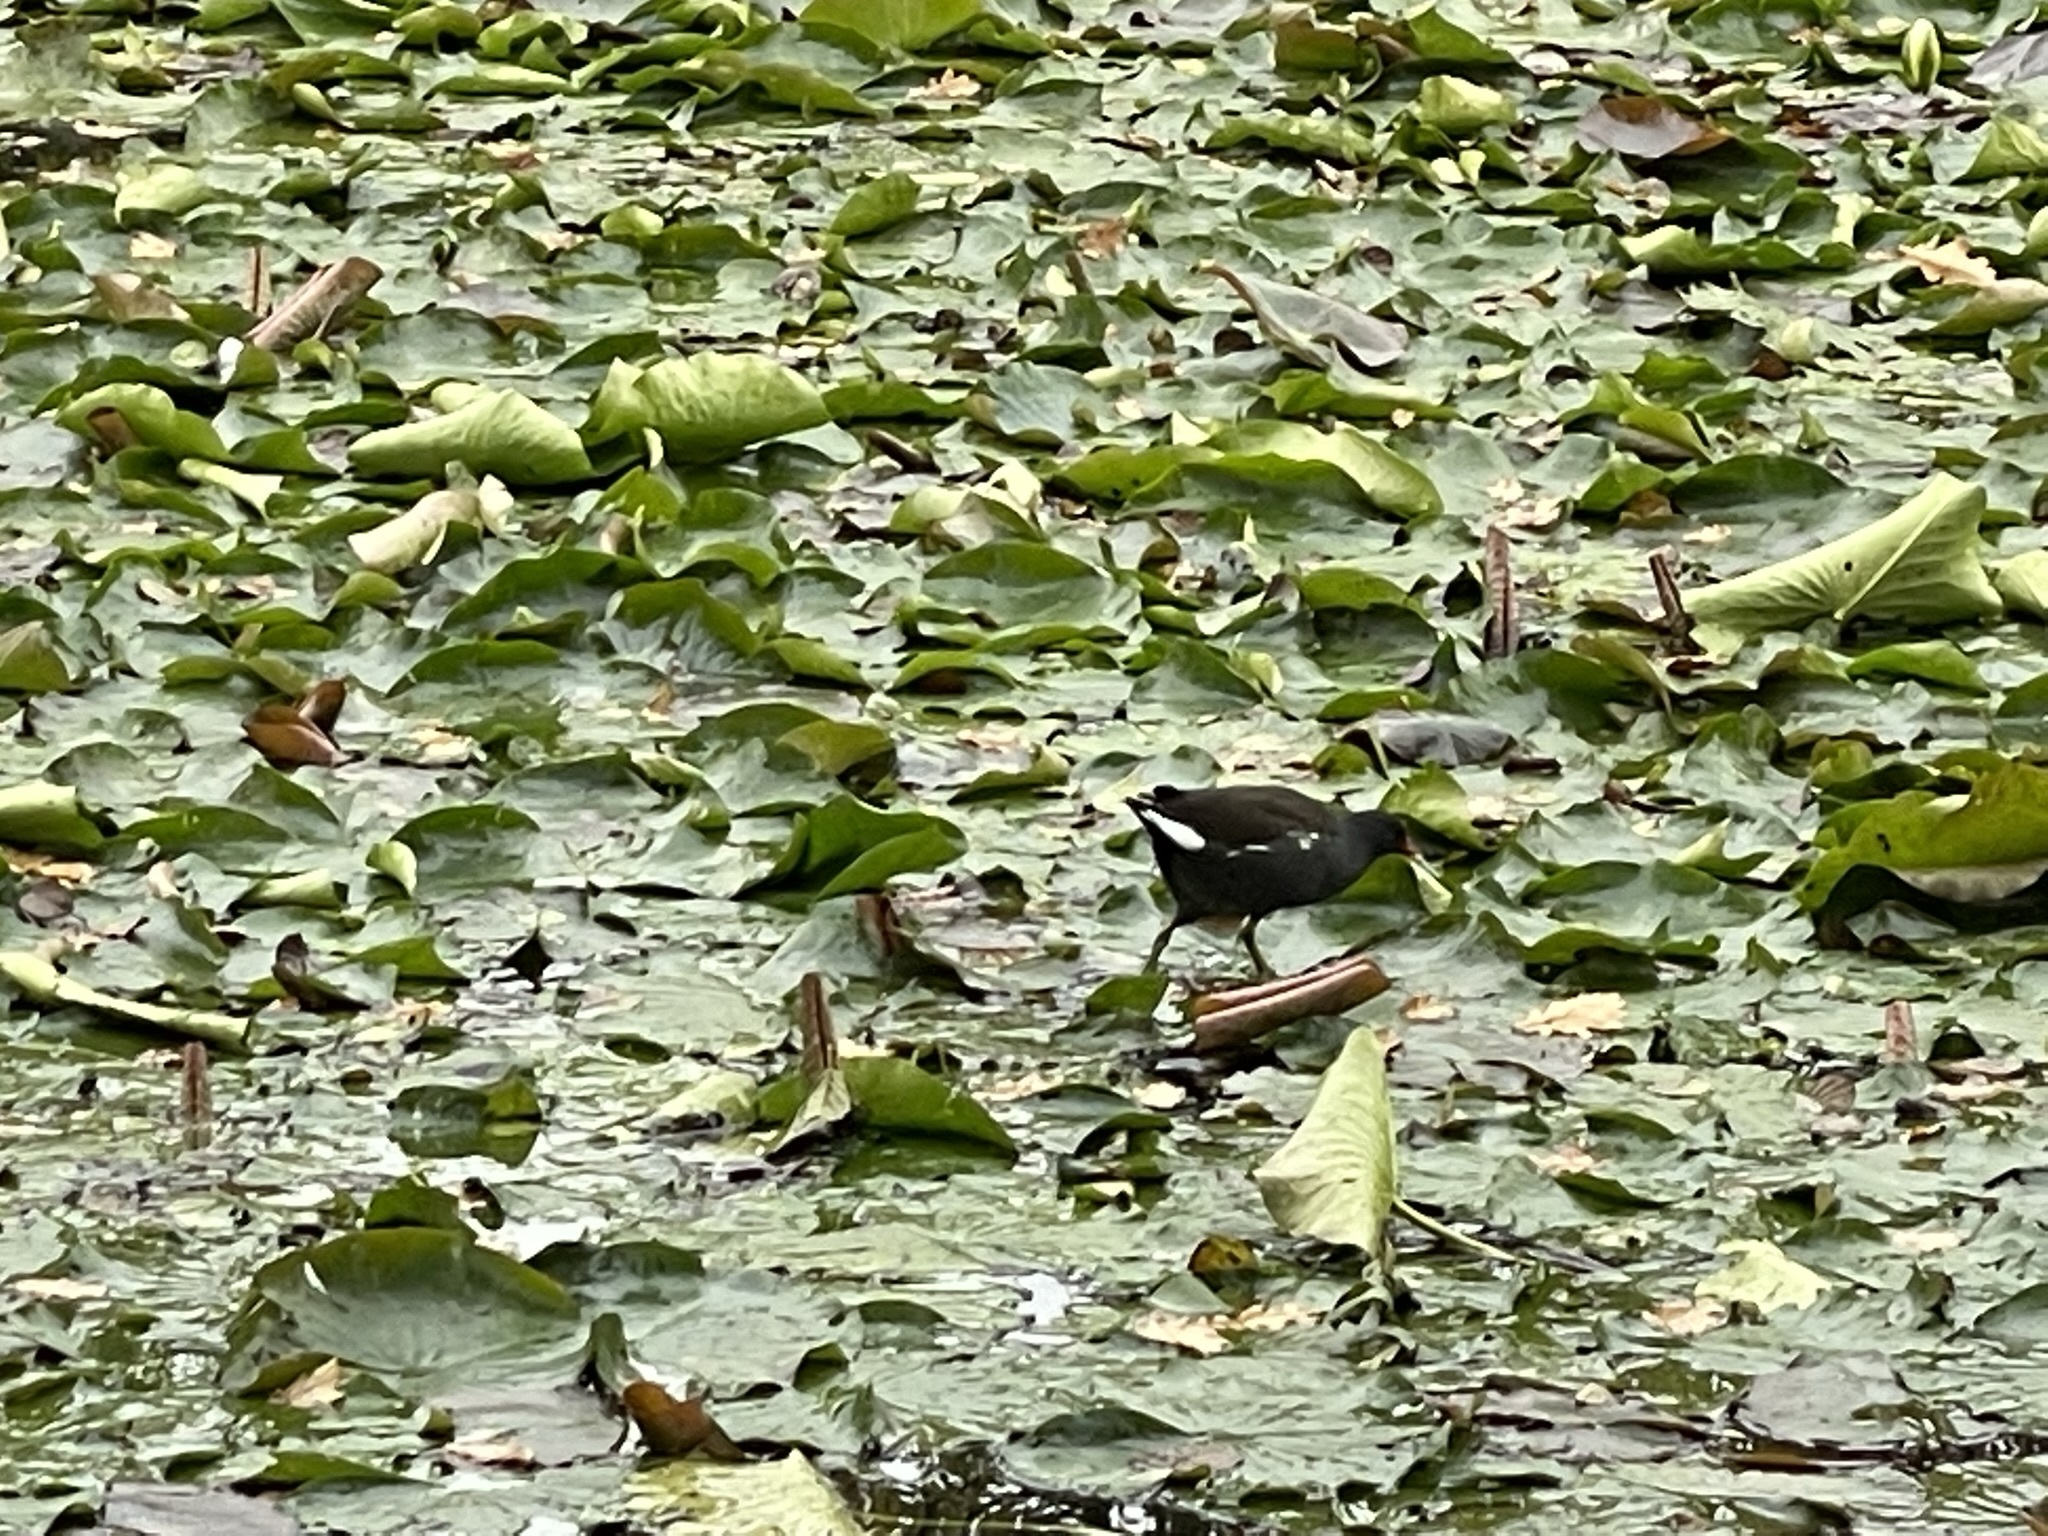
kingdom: Animalia
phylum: Chordata
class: Aves
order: Gruiformes
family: Rallidae
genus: Gallinula
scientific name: Gallinula chloropus
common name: Common moorhen
